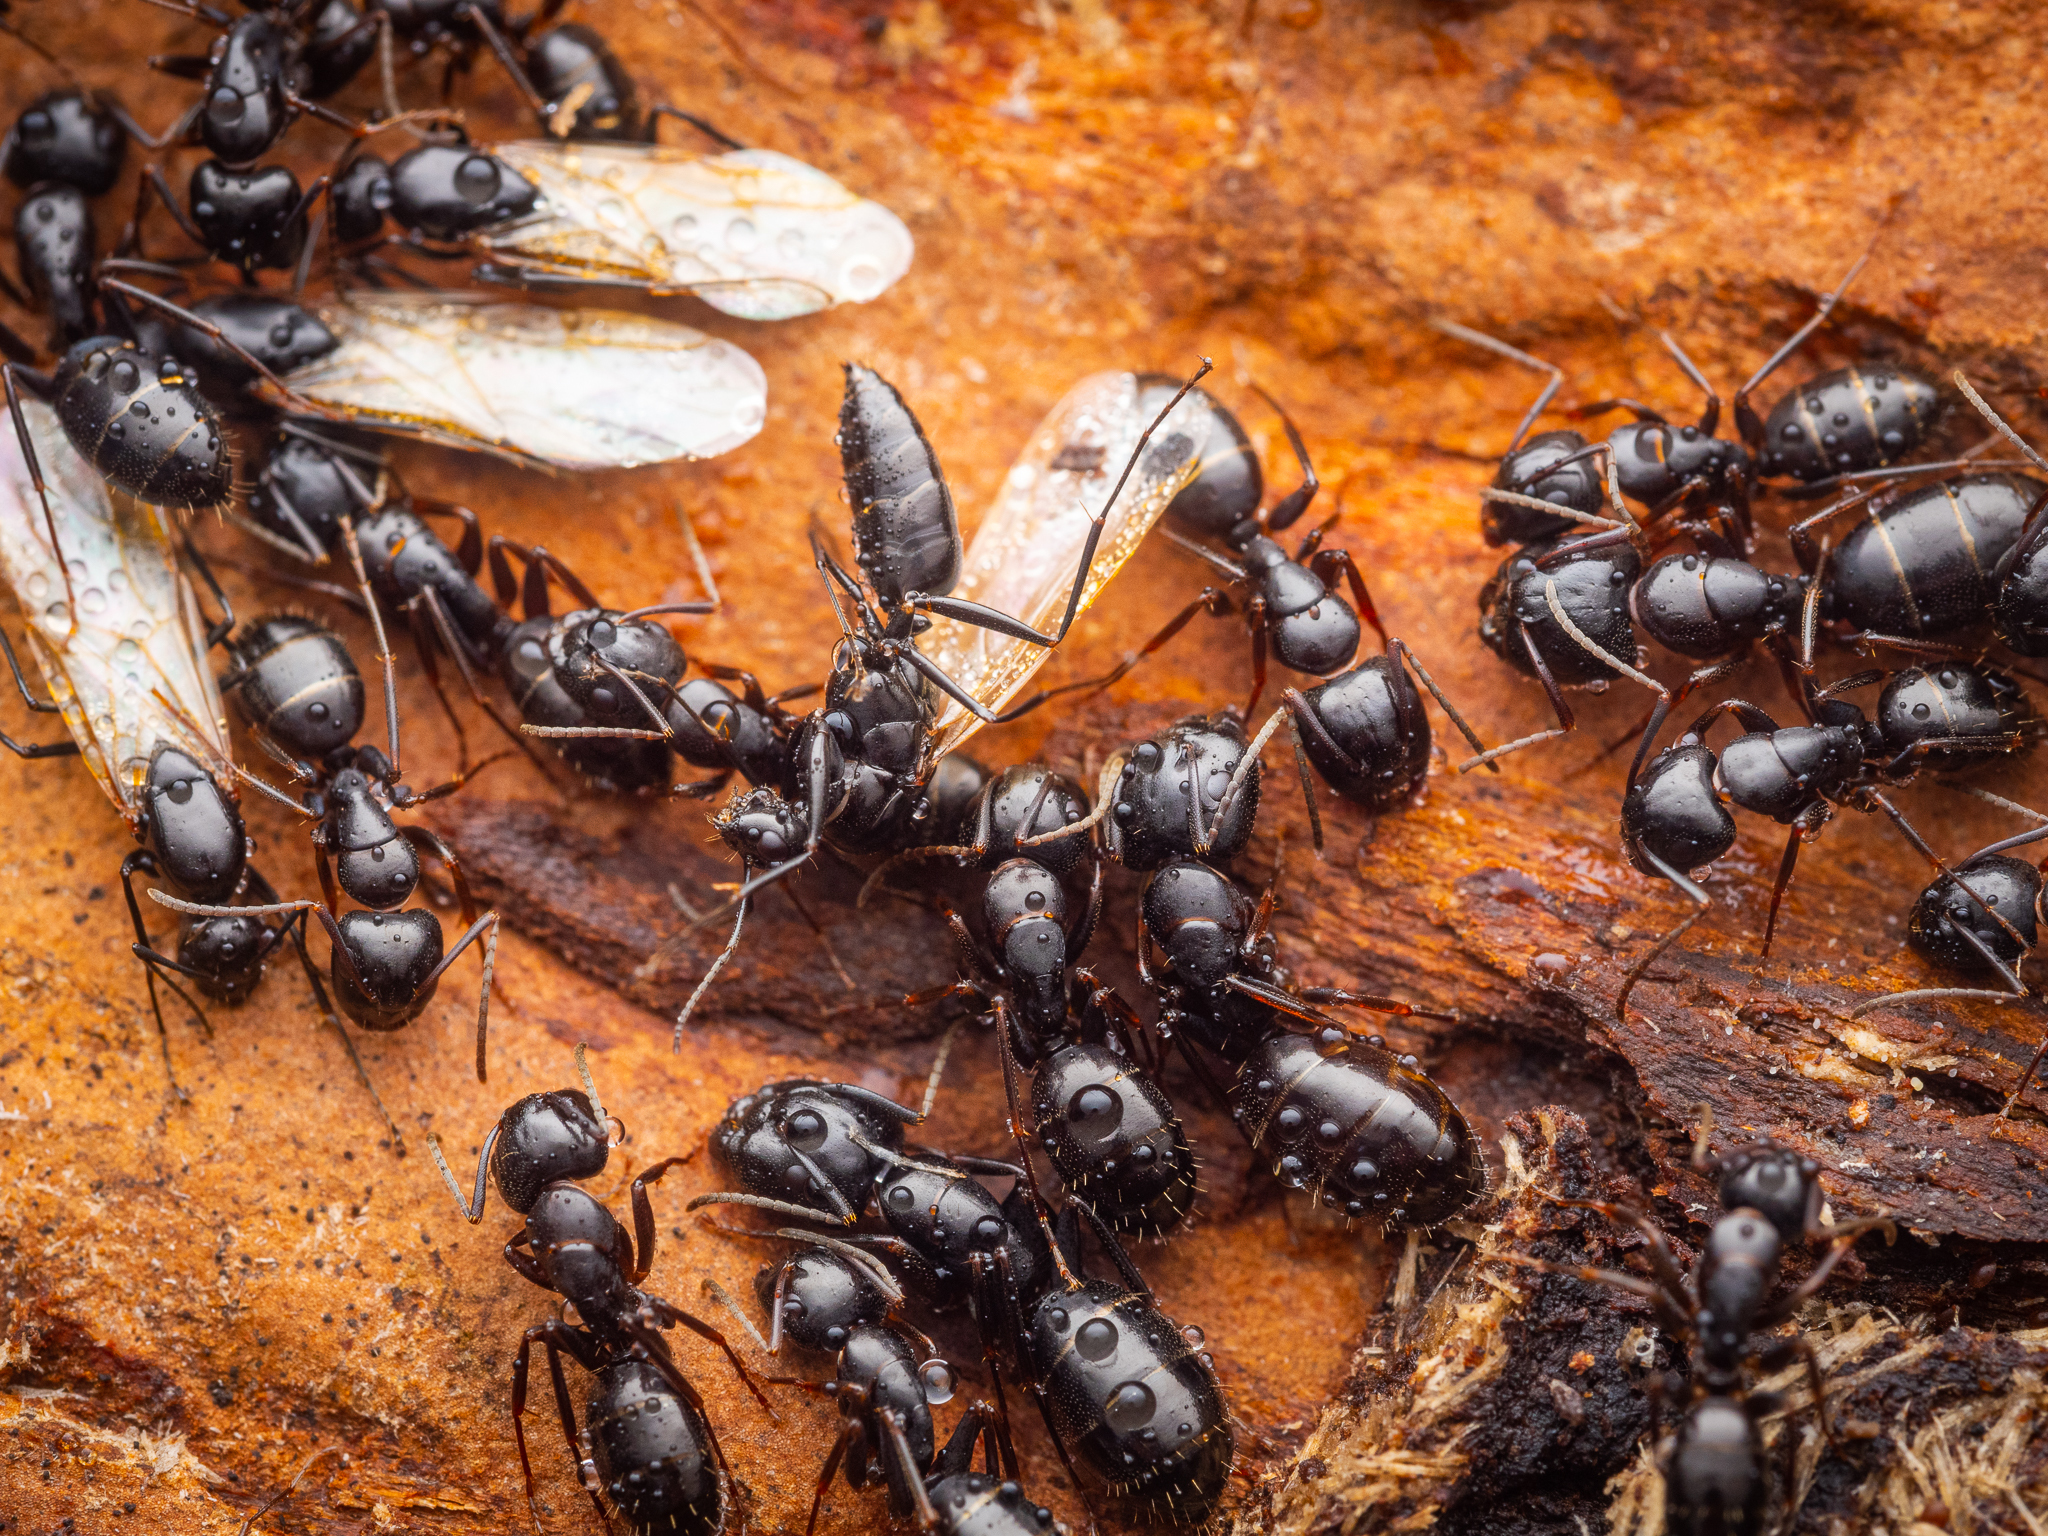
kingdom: Animalia
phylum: Arthropoda
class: Insecta
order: Hymenoptera
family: Formicidae
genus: Camponotus
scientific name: Camponotus fallax
